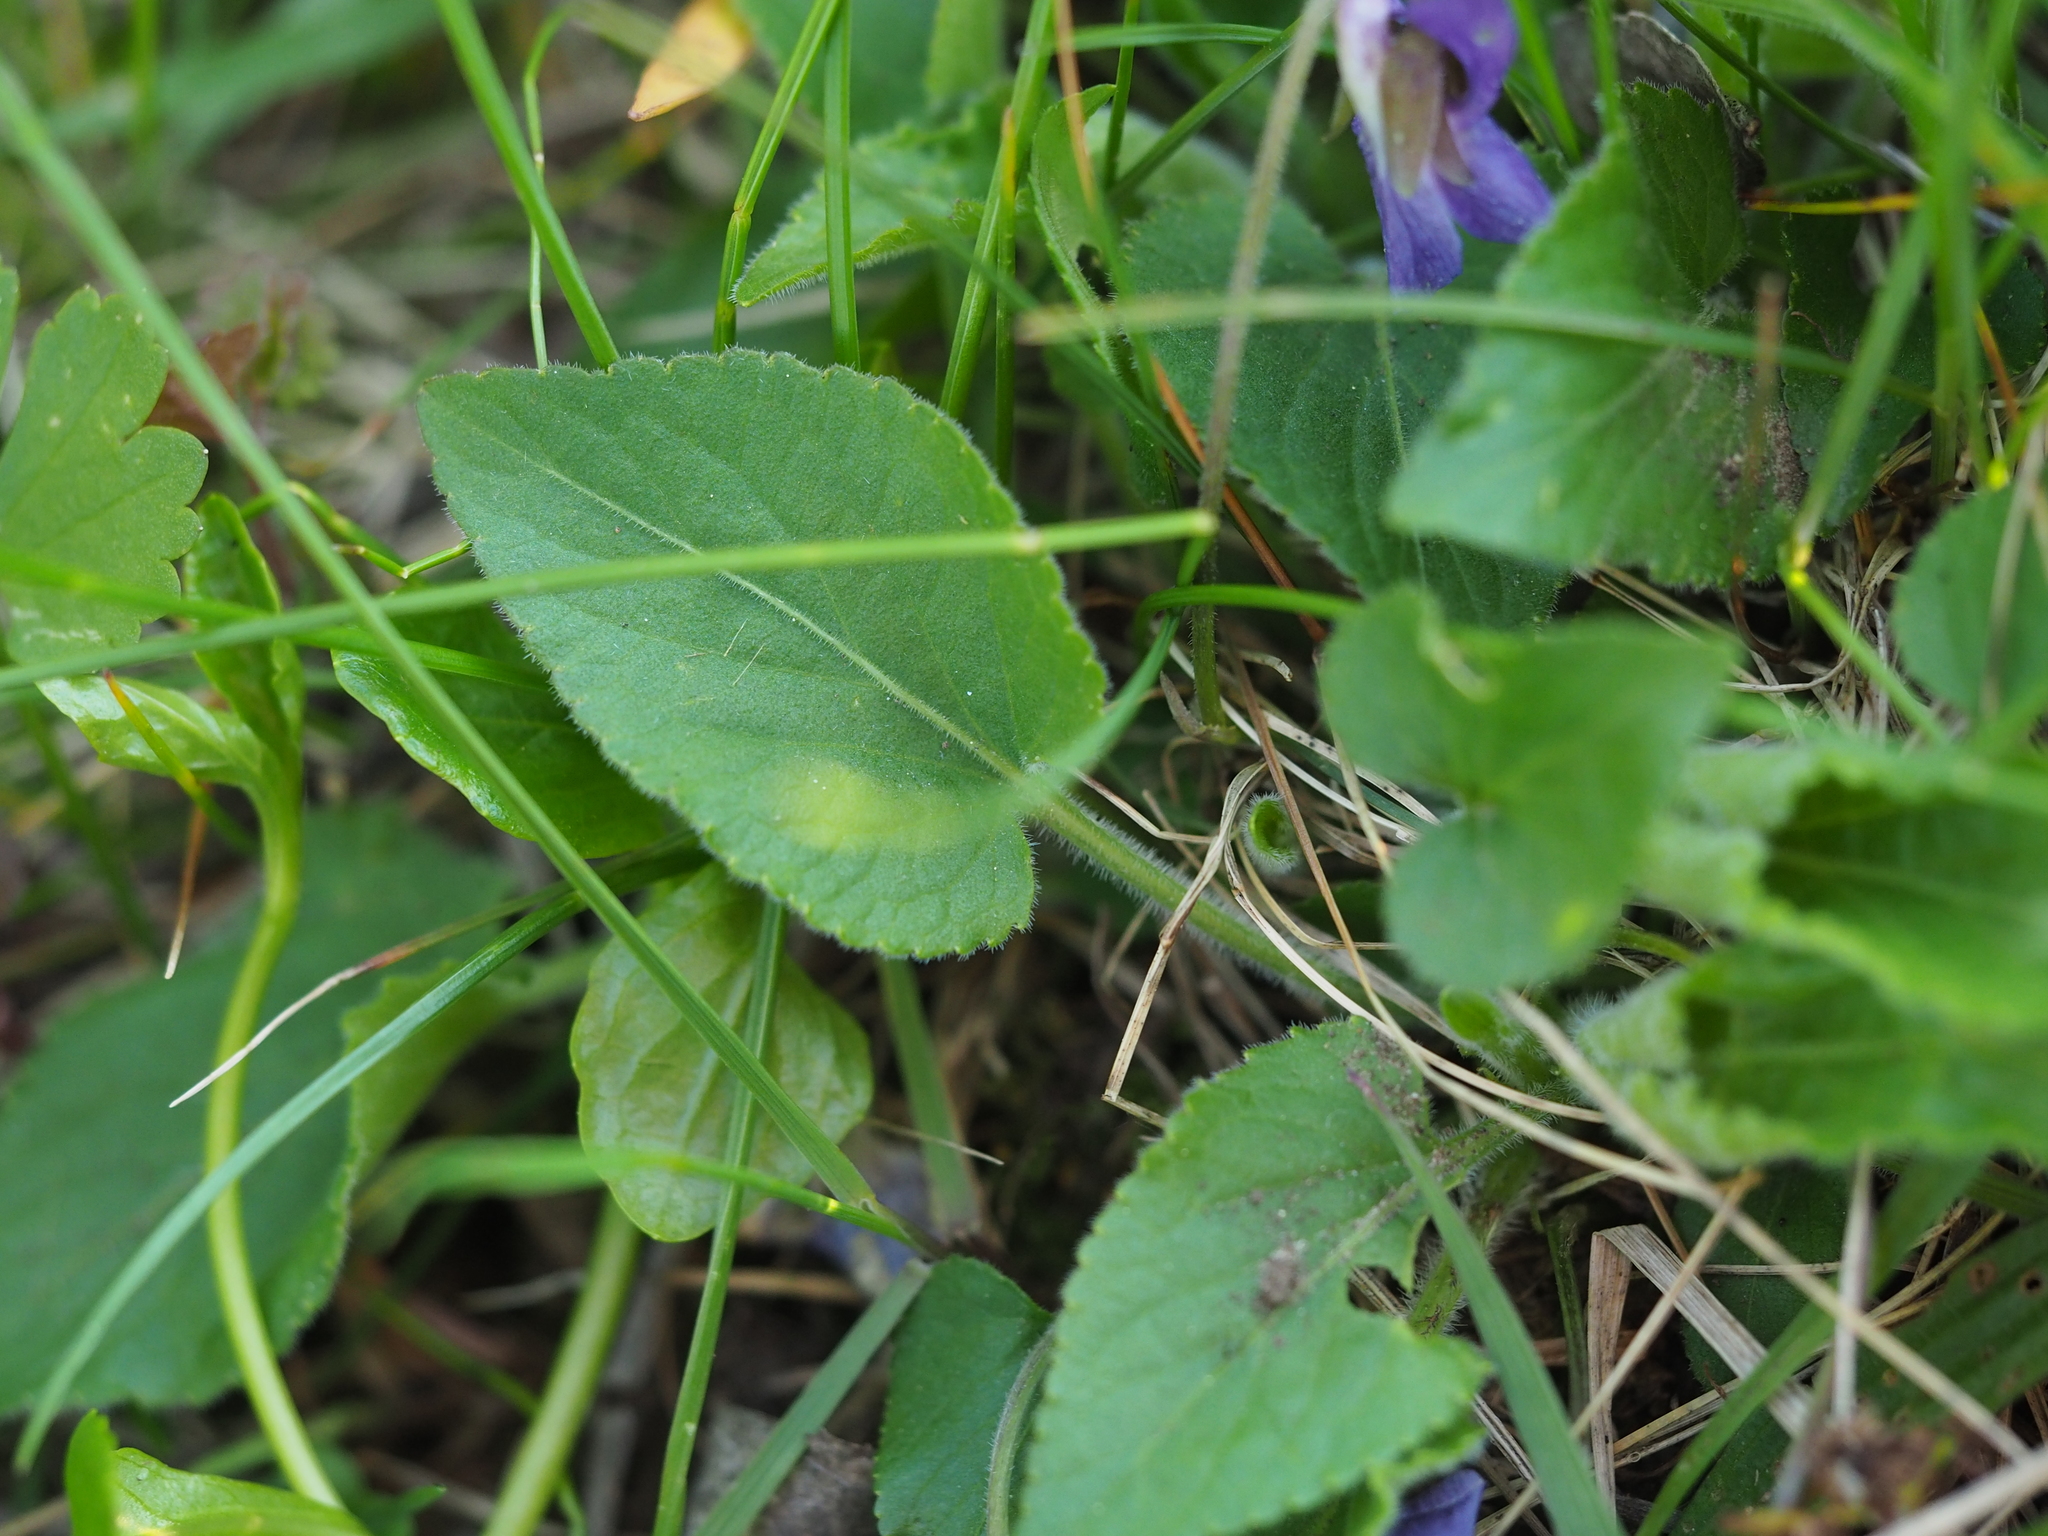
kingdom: Plantae
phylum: Tracheophyta
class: Magnoliopsida
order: Malpighiales
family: Violaceae
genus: Viola
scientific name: Viola hirta
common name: Hairy violet
